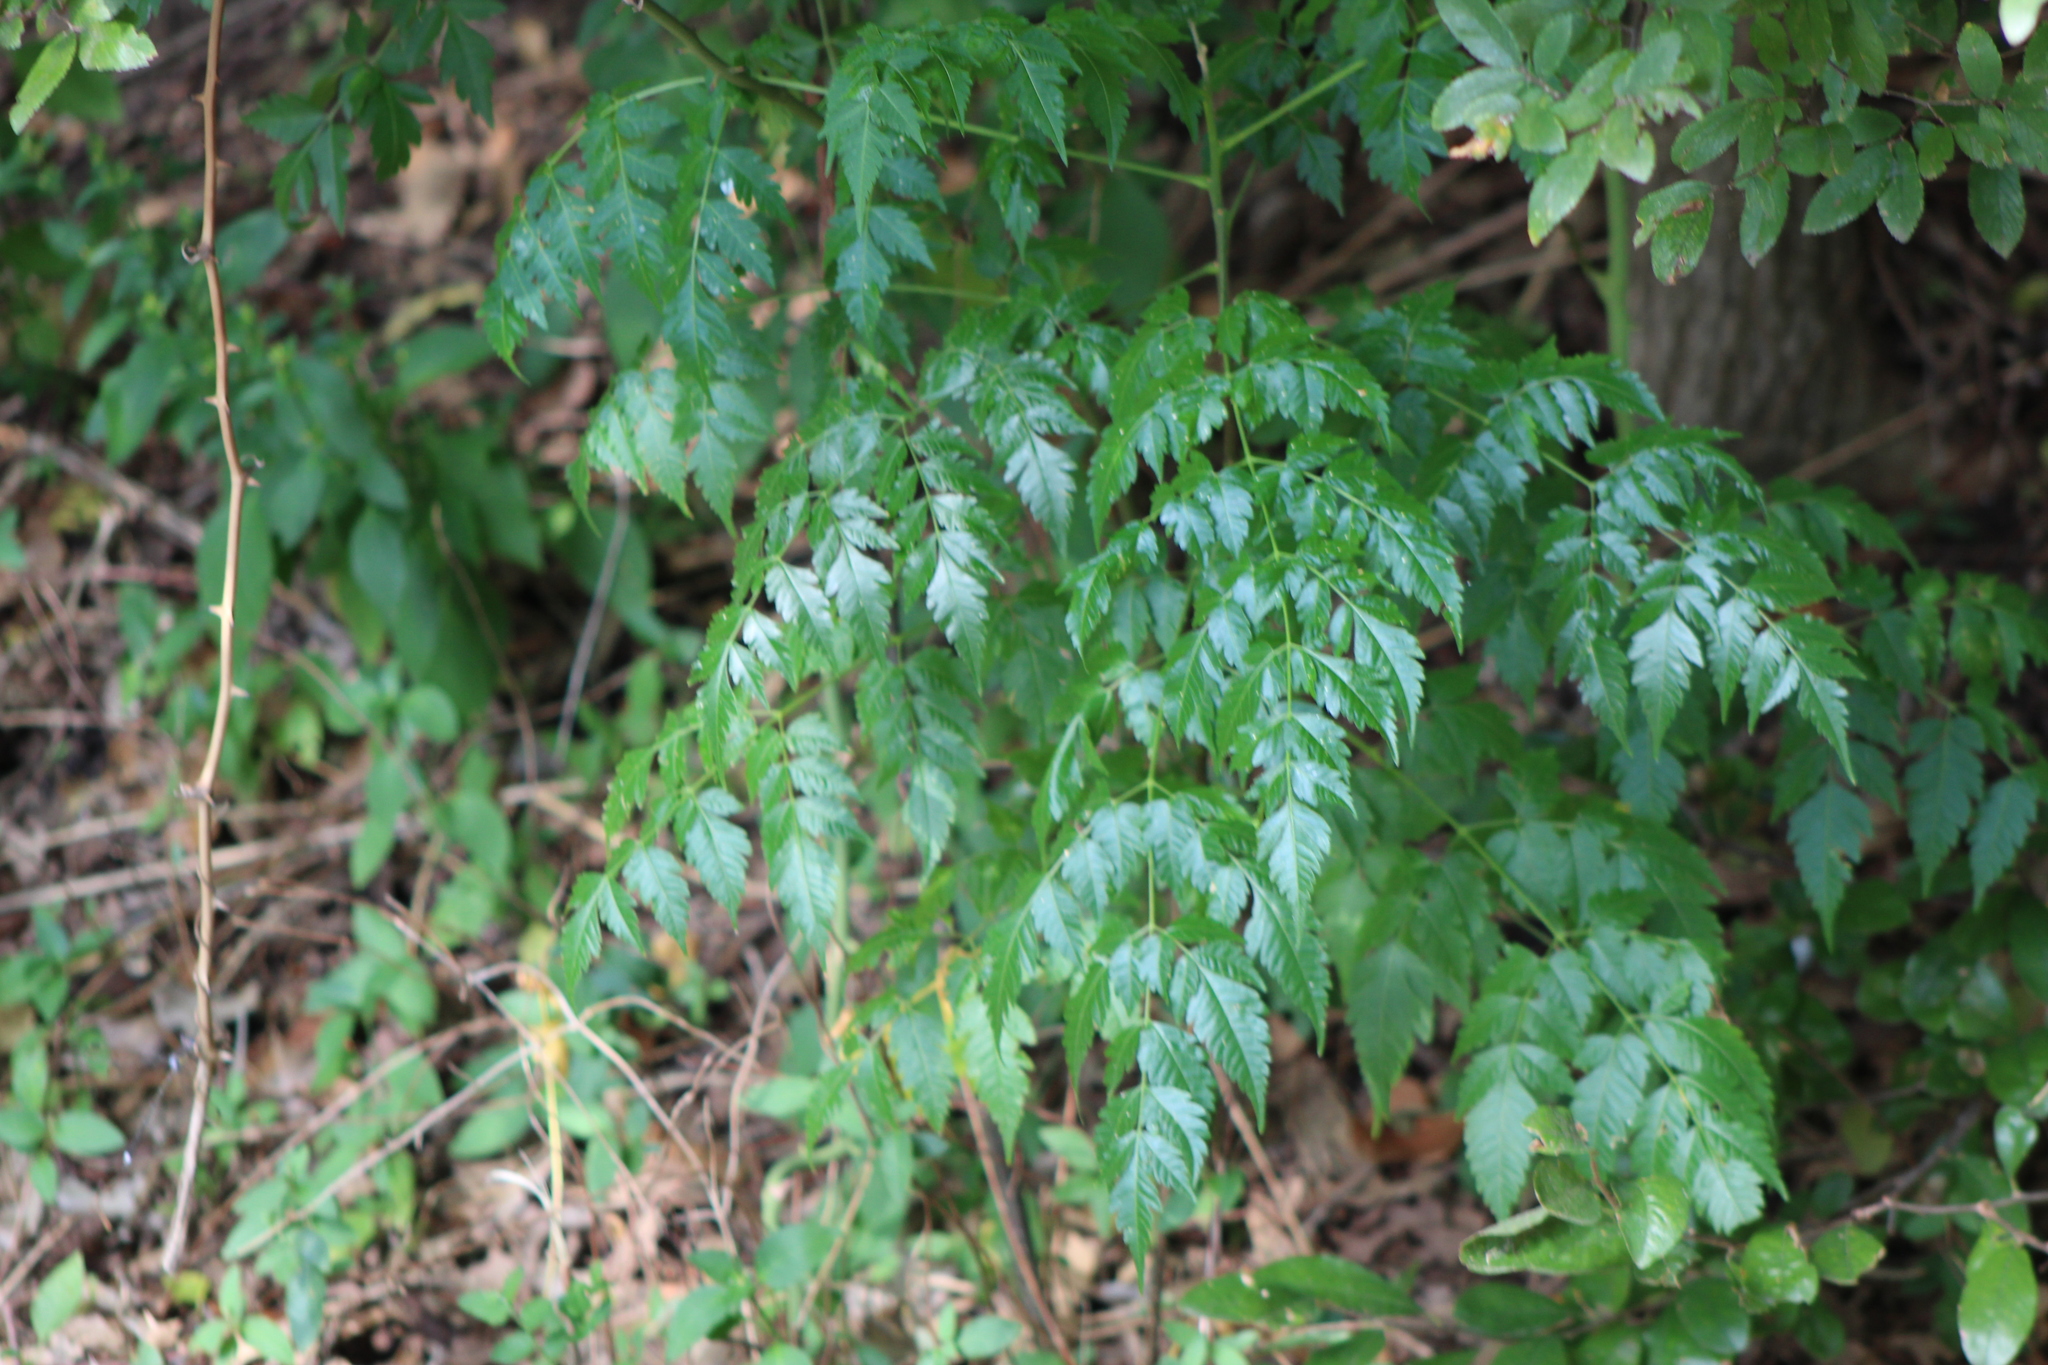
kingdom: Plantae
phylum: Tracheophyta
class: Magnoliopsida
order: Sapindales
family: Meliaceae
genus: Melia
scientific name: Melia azedarach
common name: Chinaberrytree
